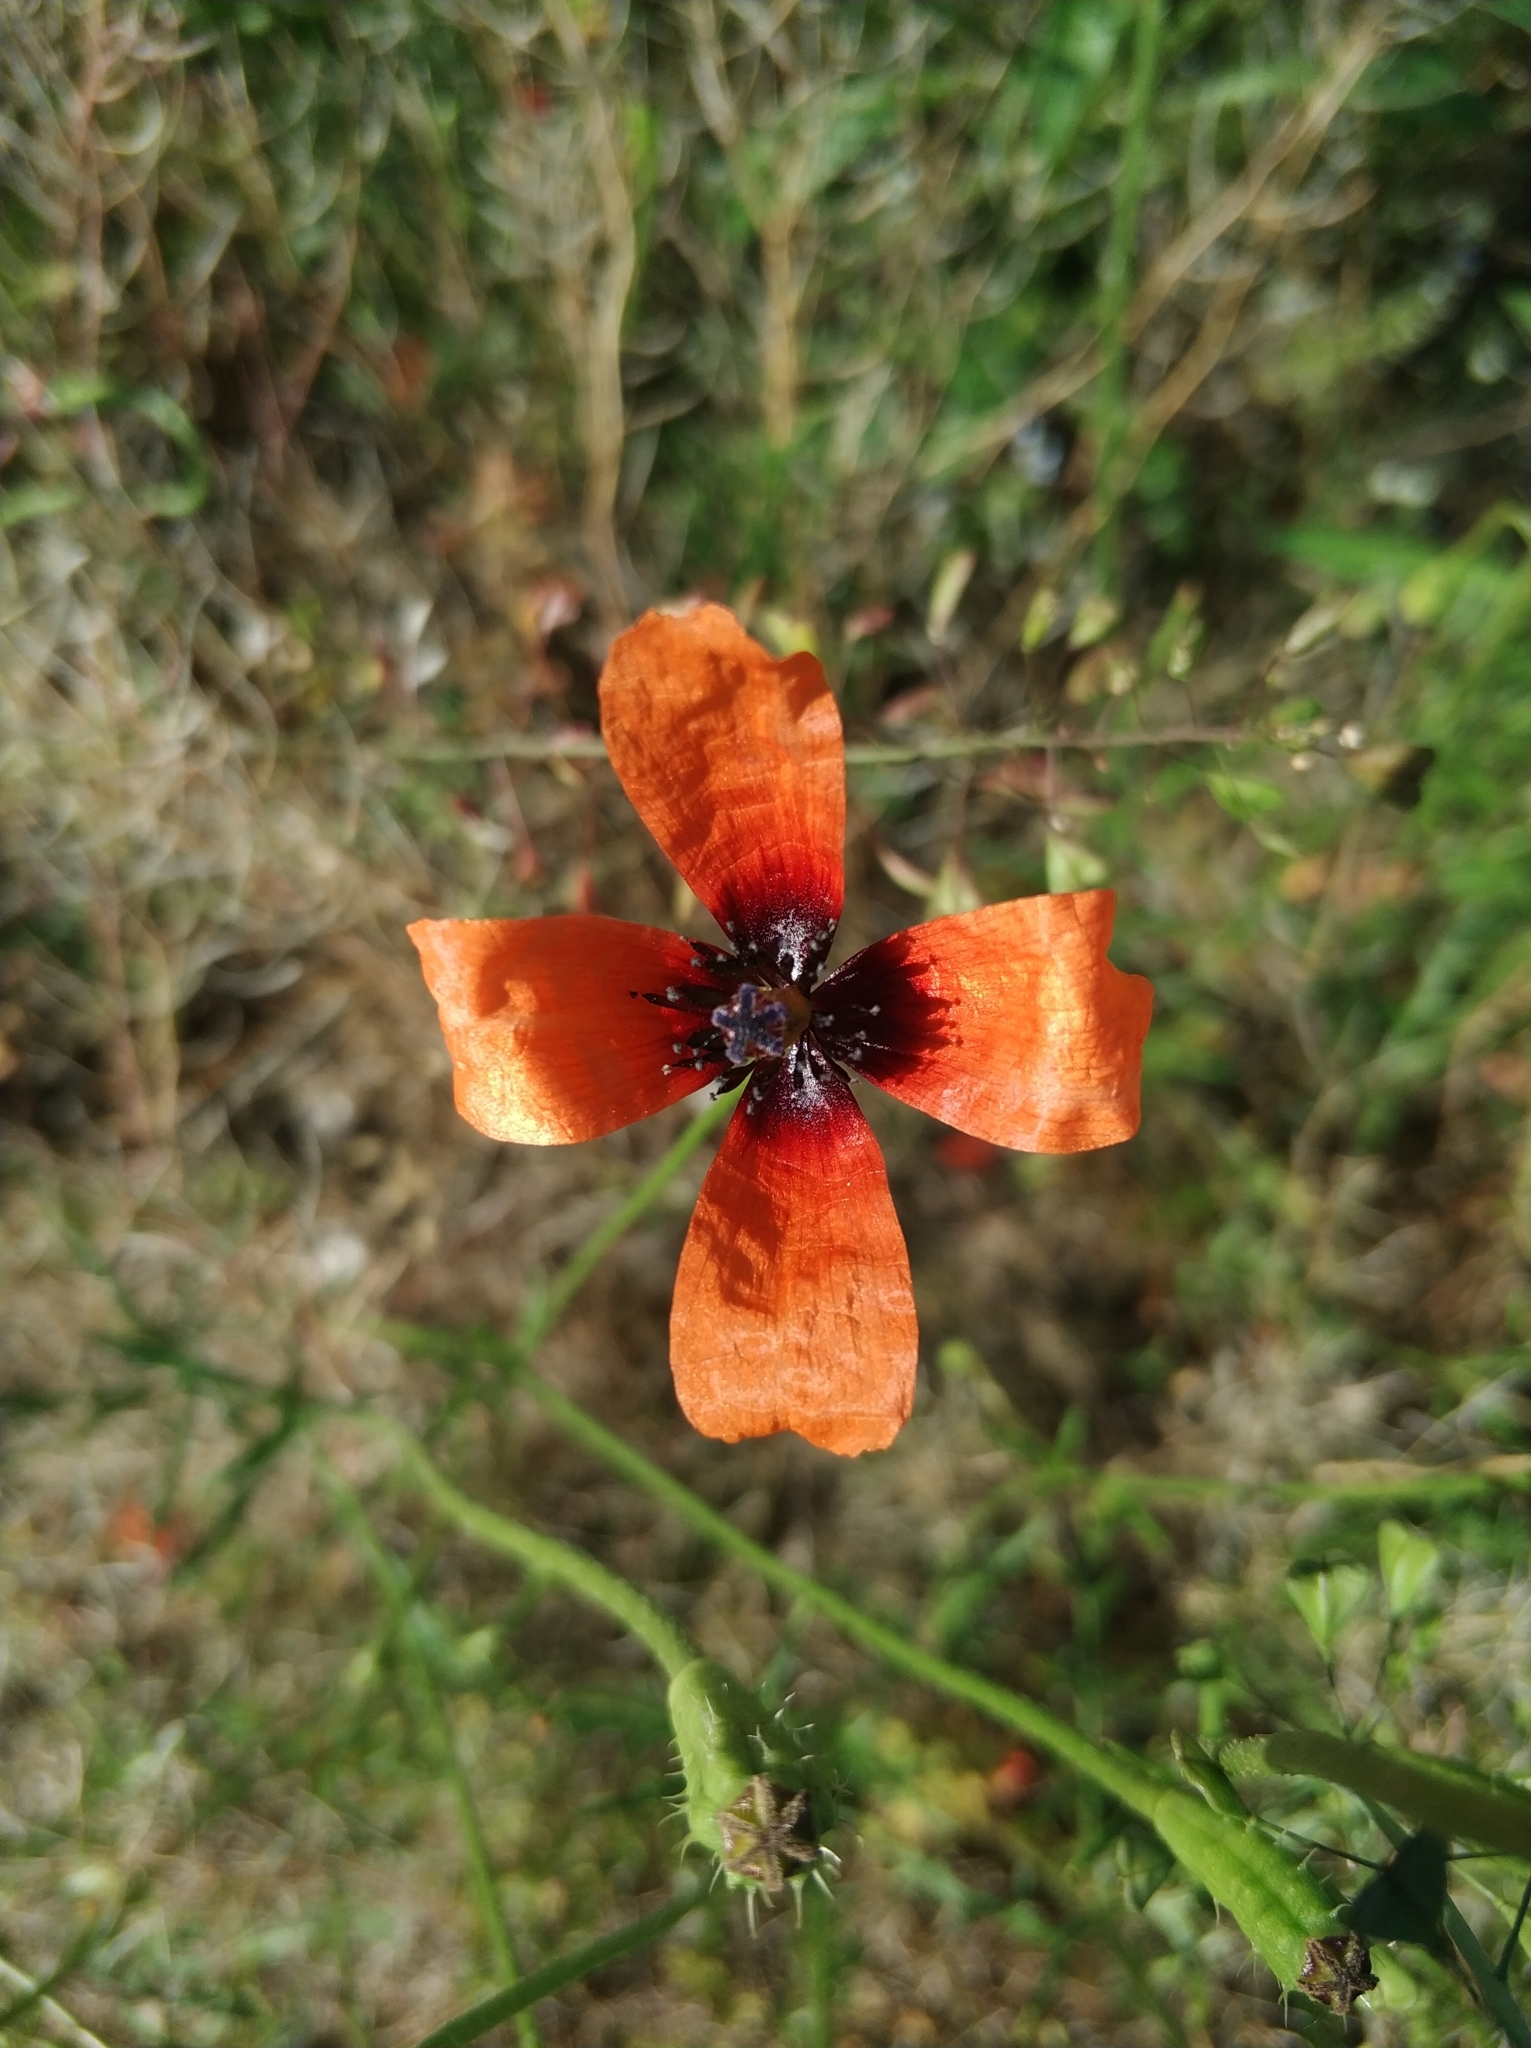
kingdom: Plantae
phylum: Tracheophyta
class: Magnoliopsida
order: Ranunculales
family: Papaveraceae
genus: Roemeria
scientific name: Roemeria argemone
